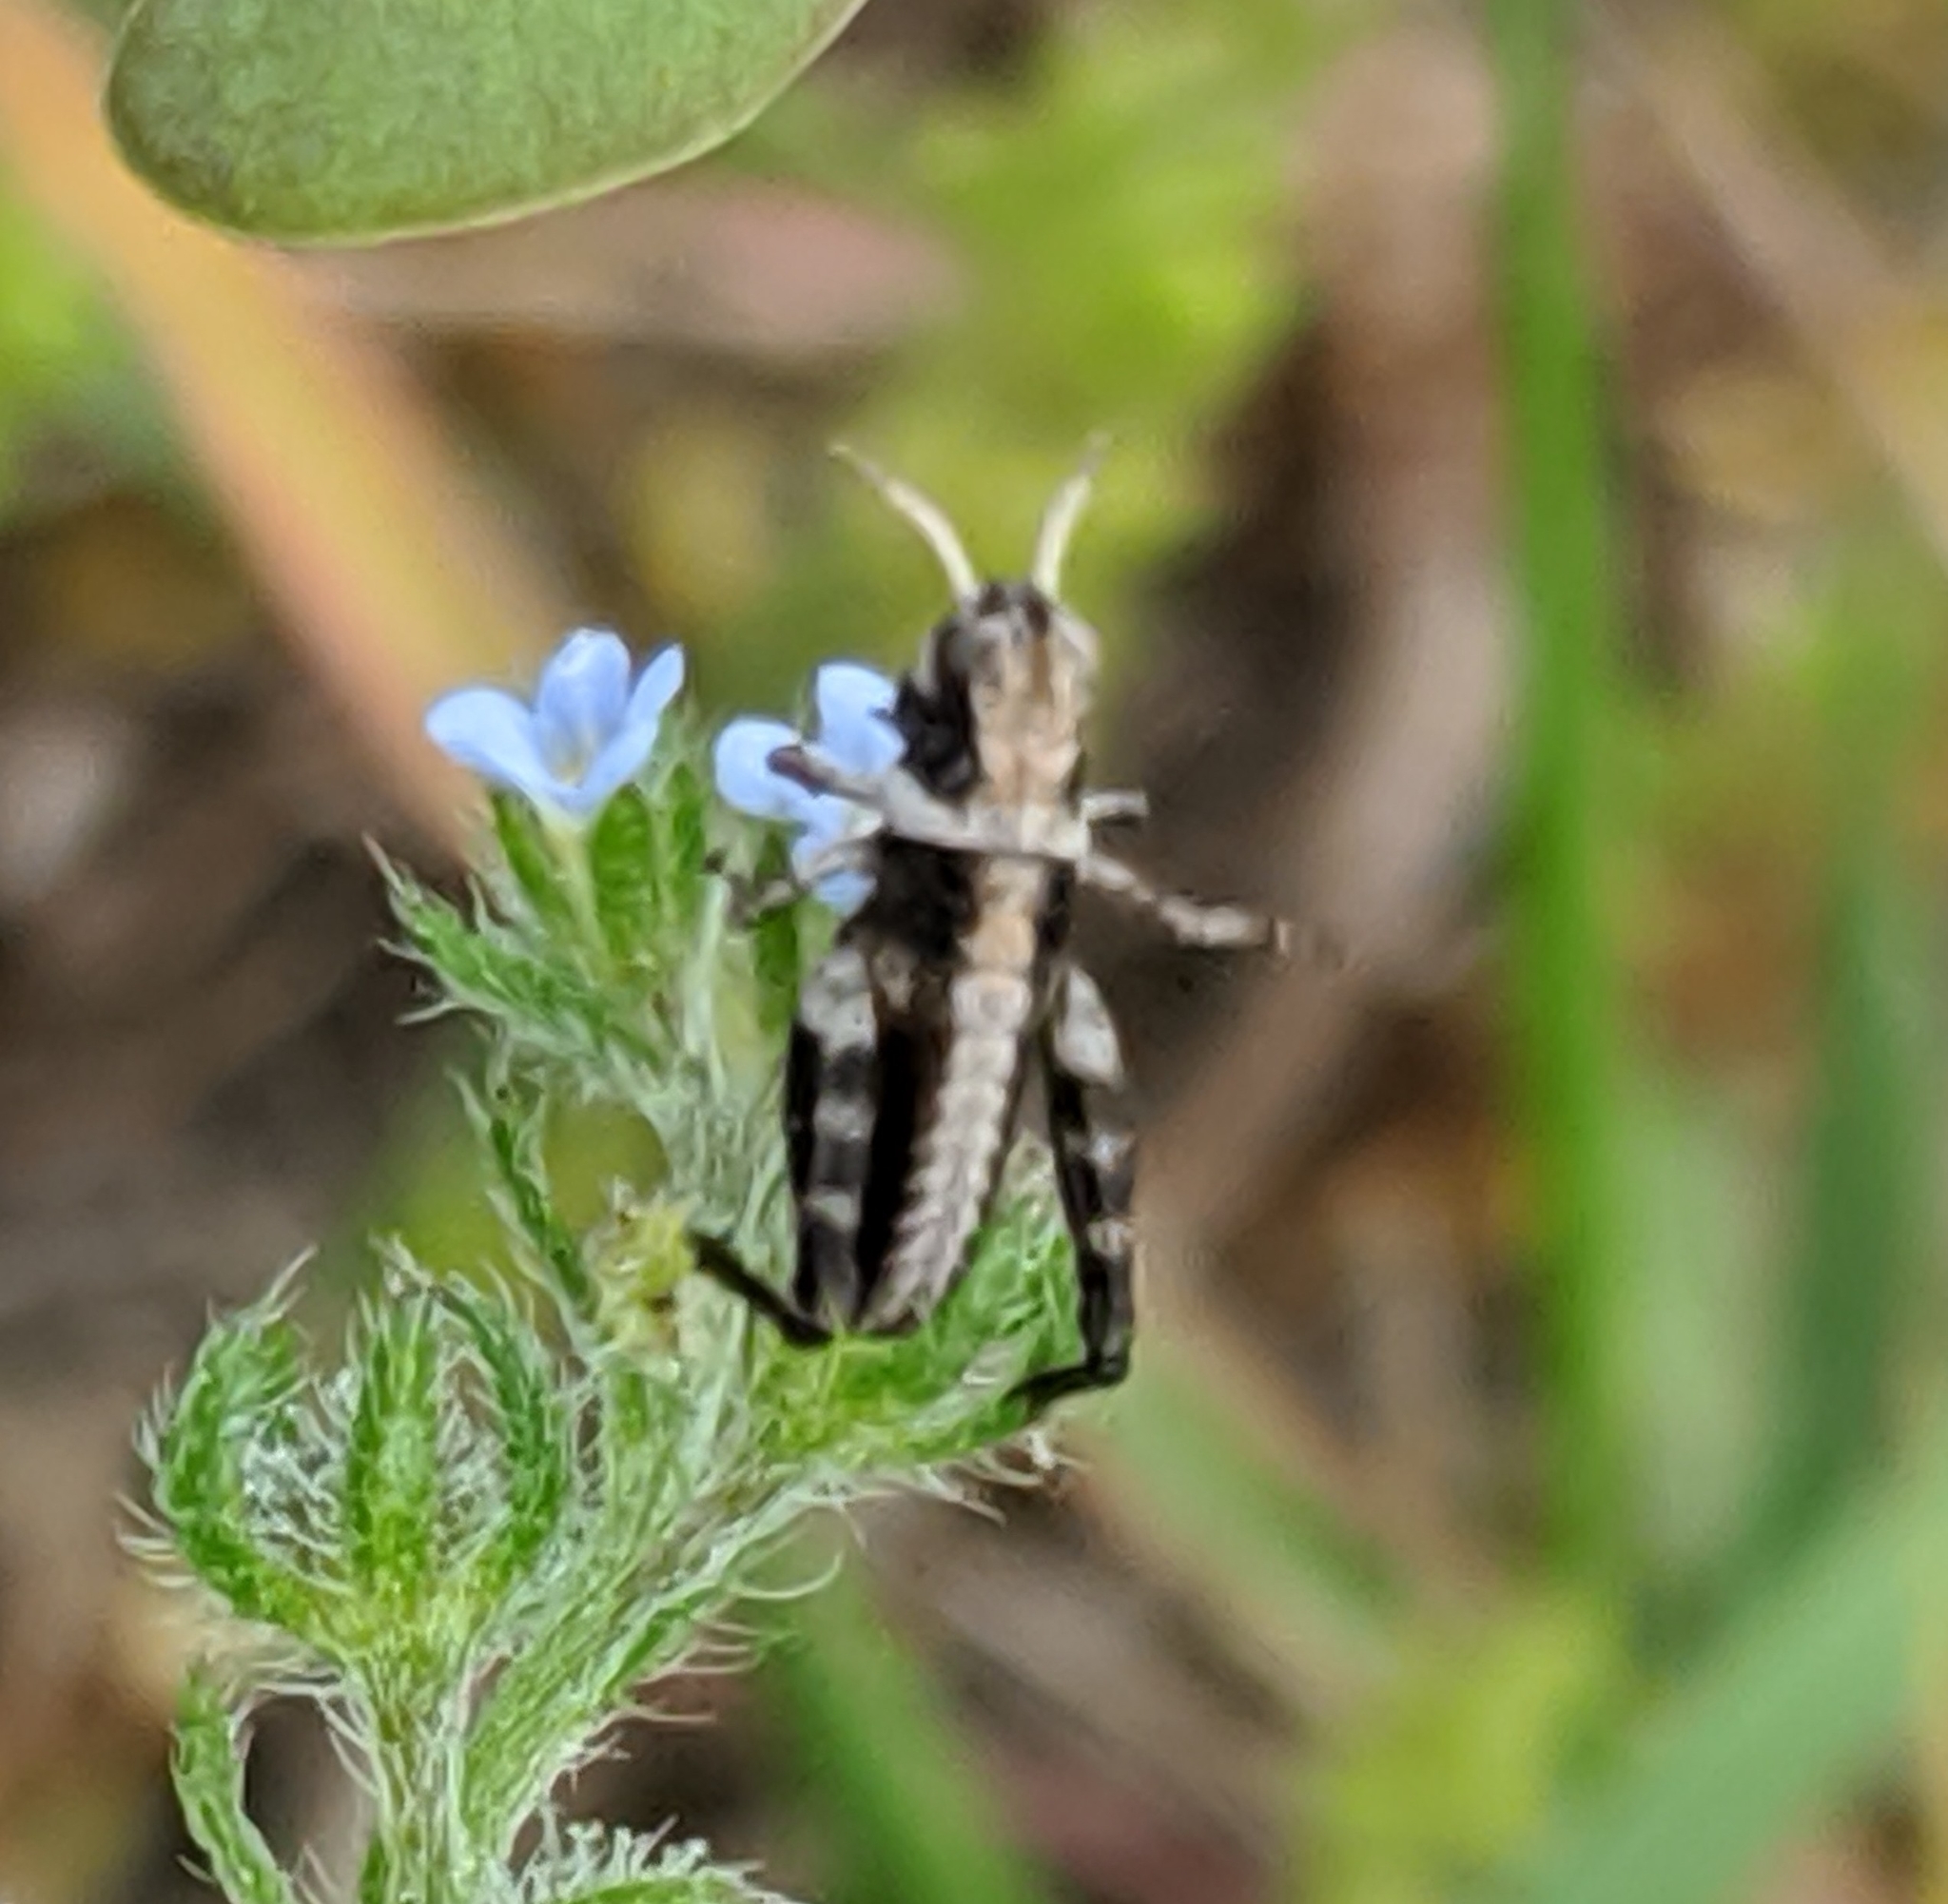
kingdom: Animalia
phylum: Arthropoda
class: Insecta
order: Orthoptera
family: Acrididae
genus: Camnula
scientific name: Camnula pellucida
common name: Clear-winged grasshopper
